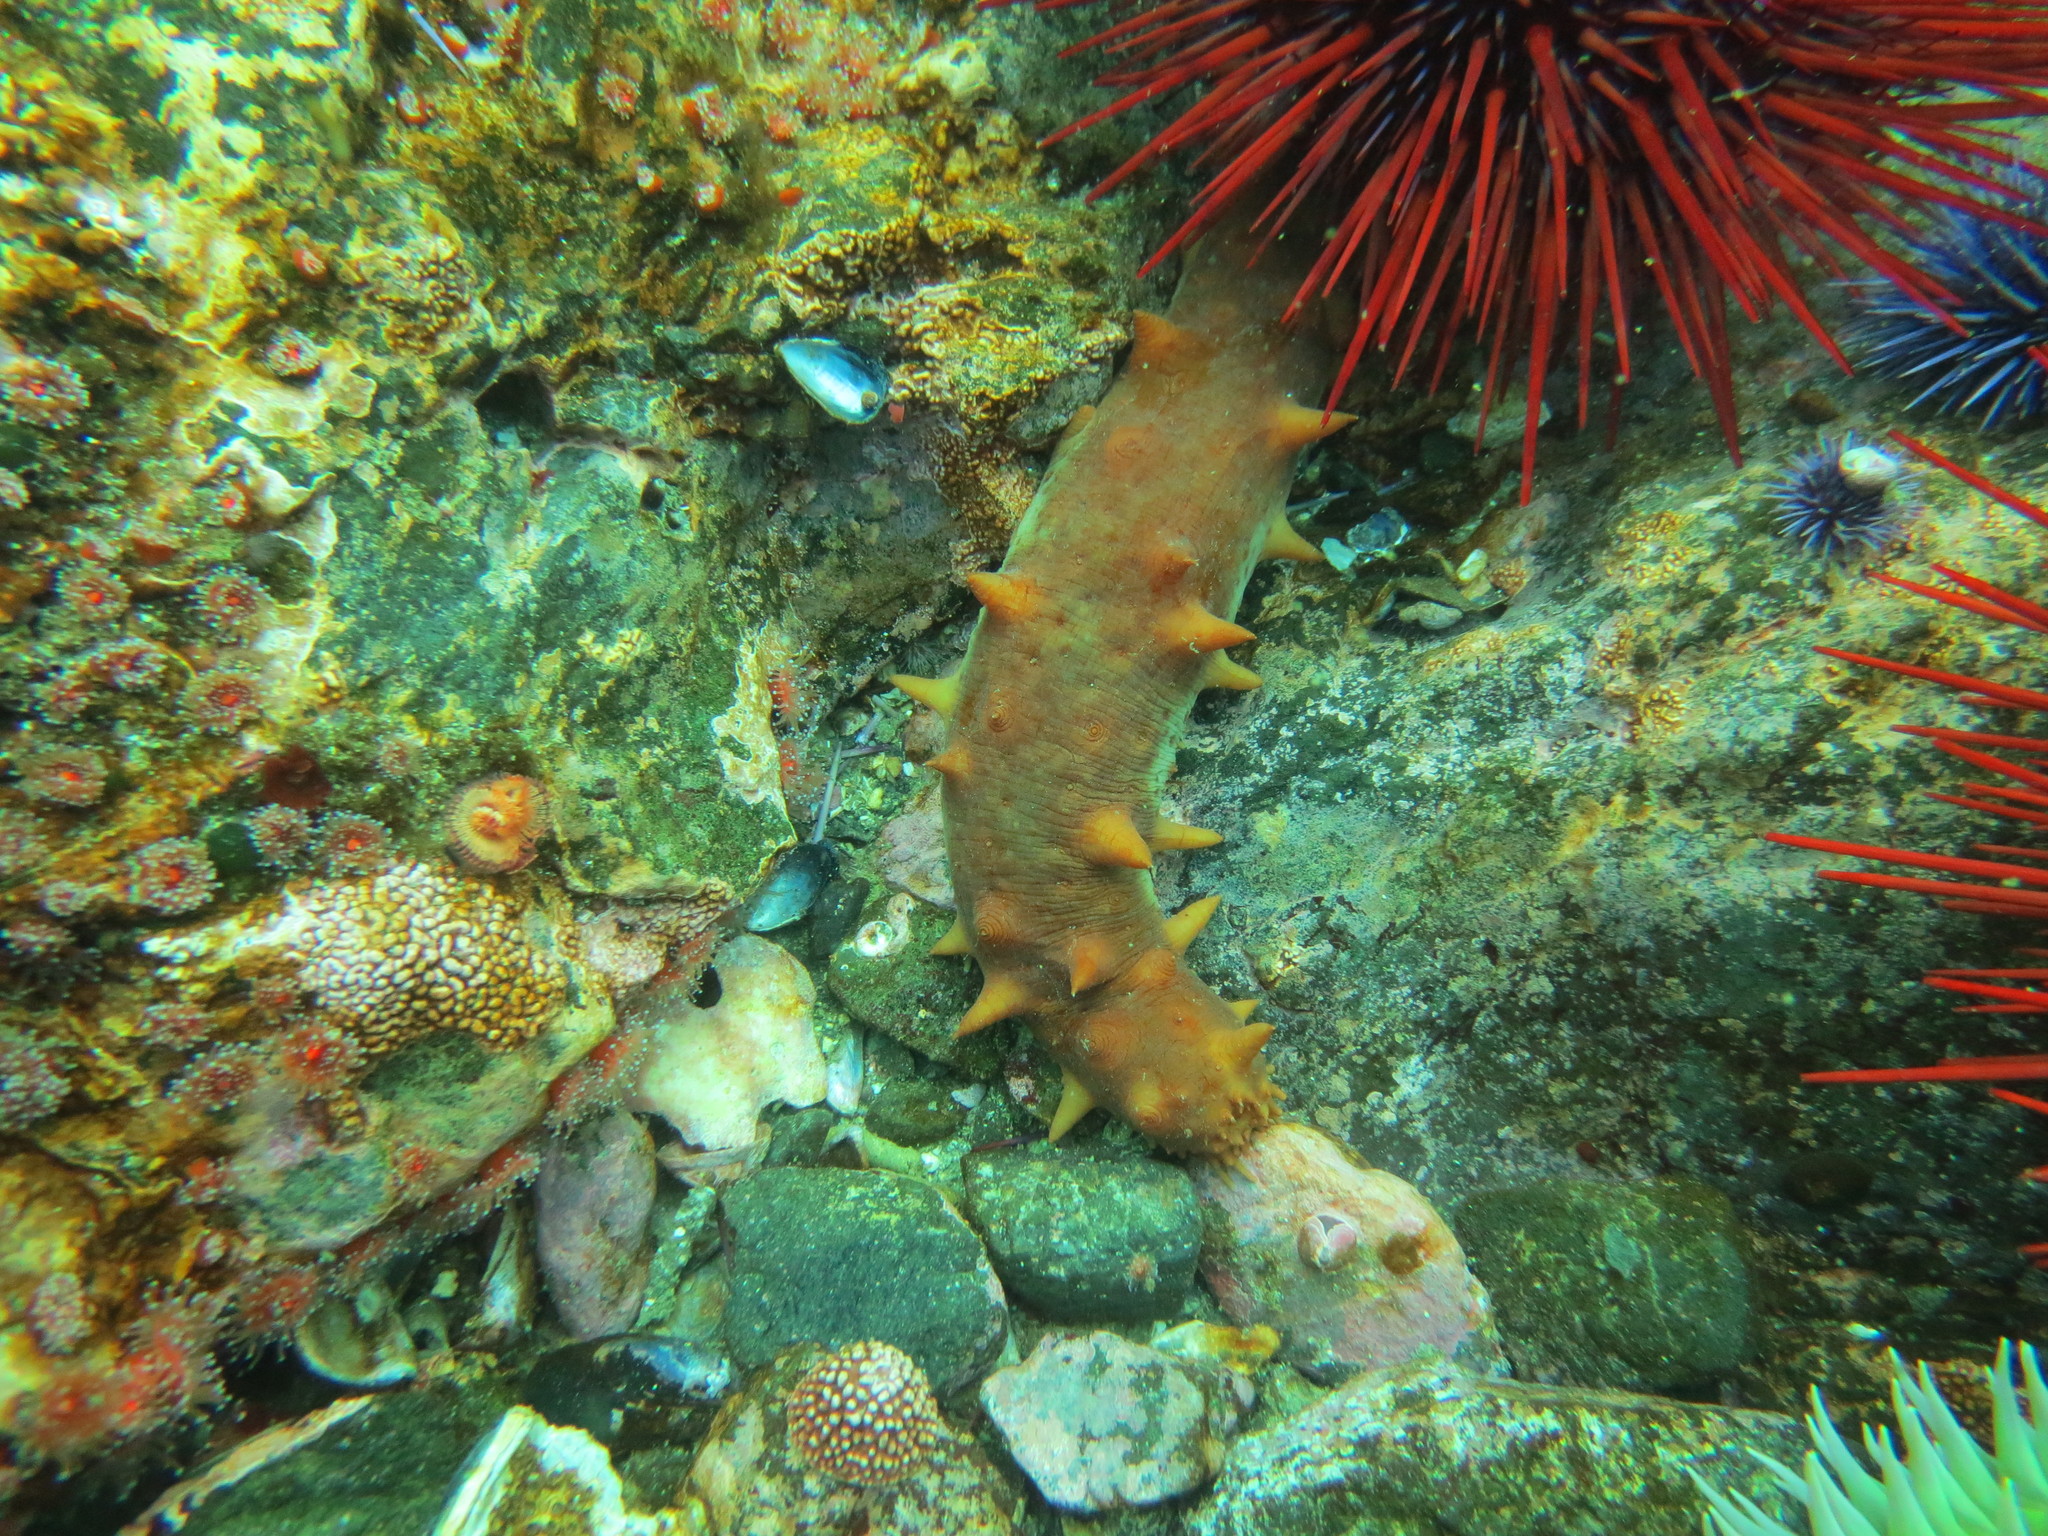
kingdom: Animalia
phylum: Echinodermata
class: Holothuroidea
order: Synallactida
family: Stichopodidae
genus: Apostichopus
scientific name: Apostichopus californicus
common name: California sea cucumber
